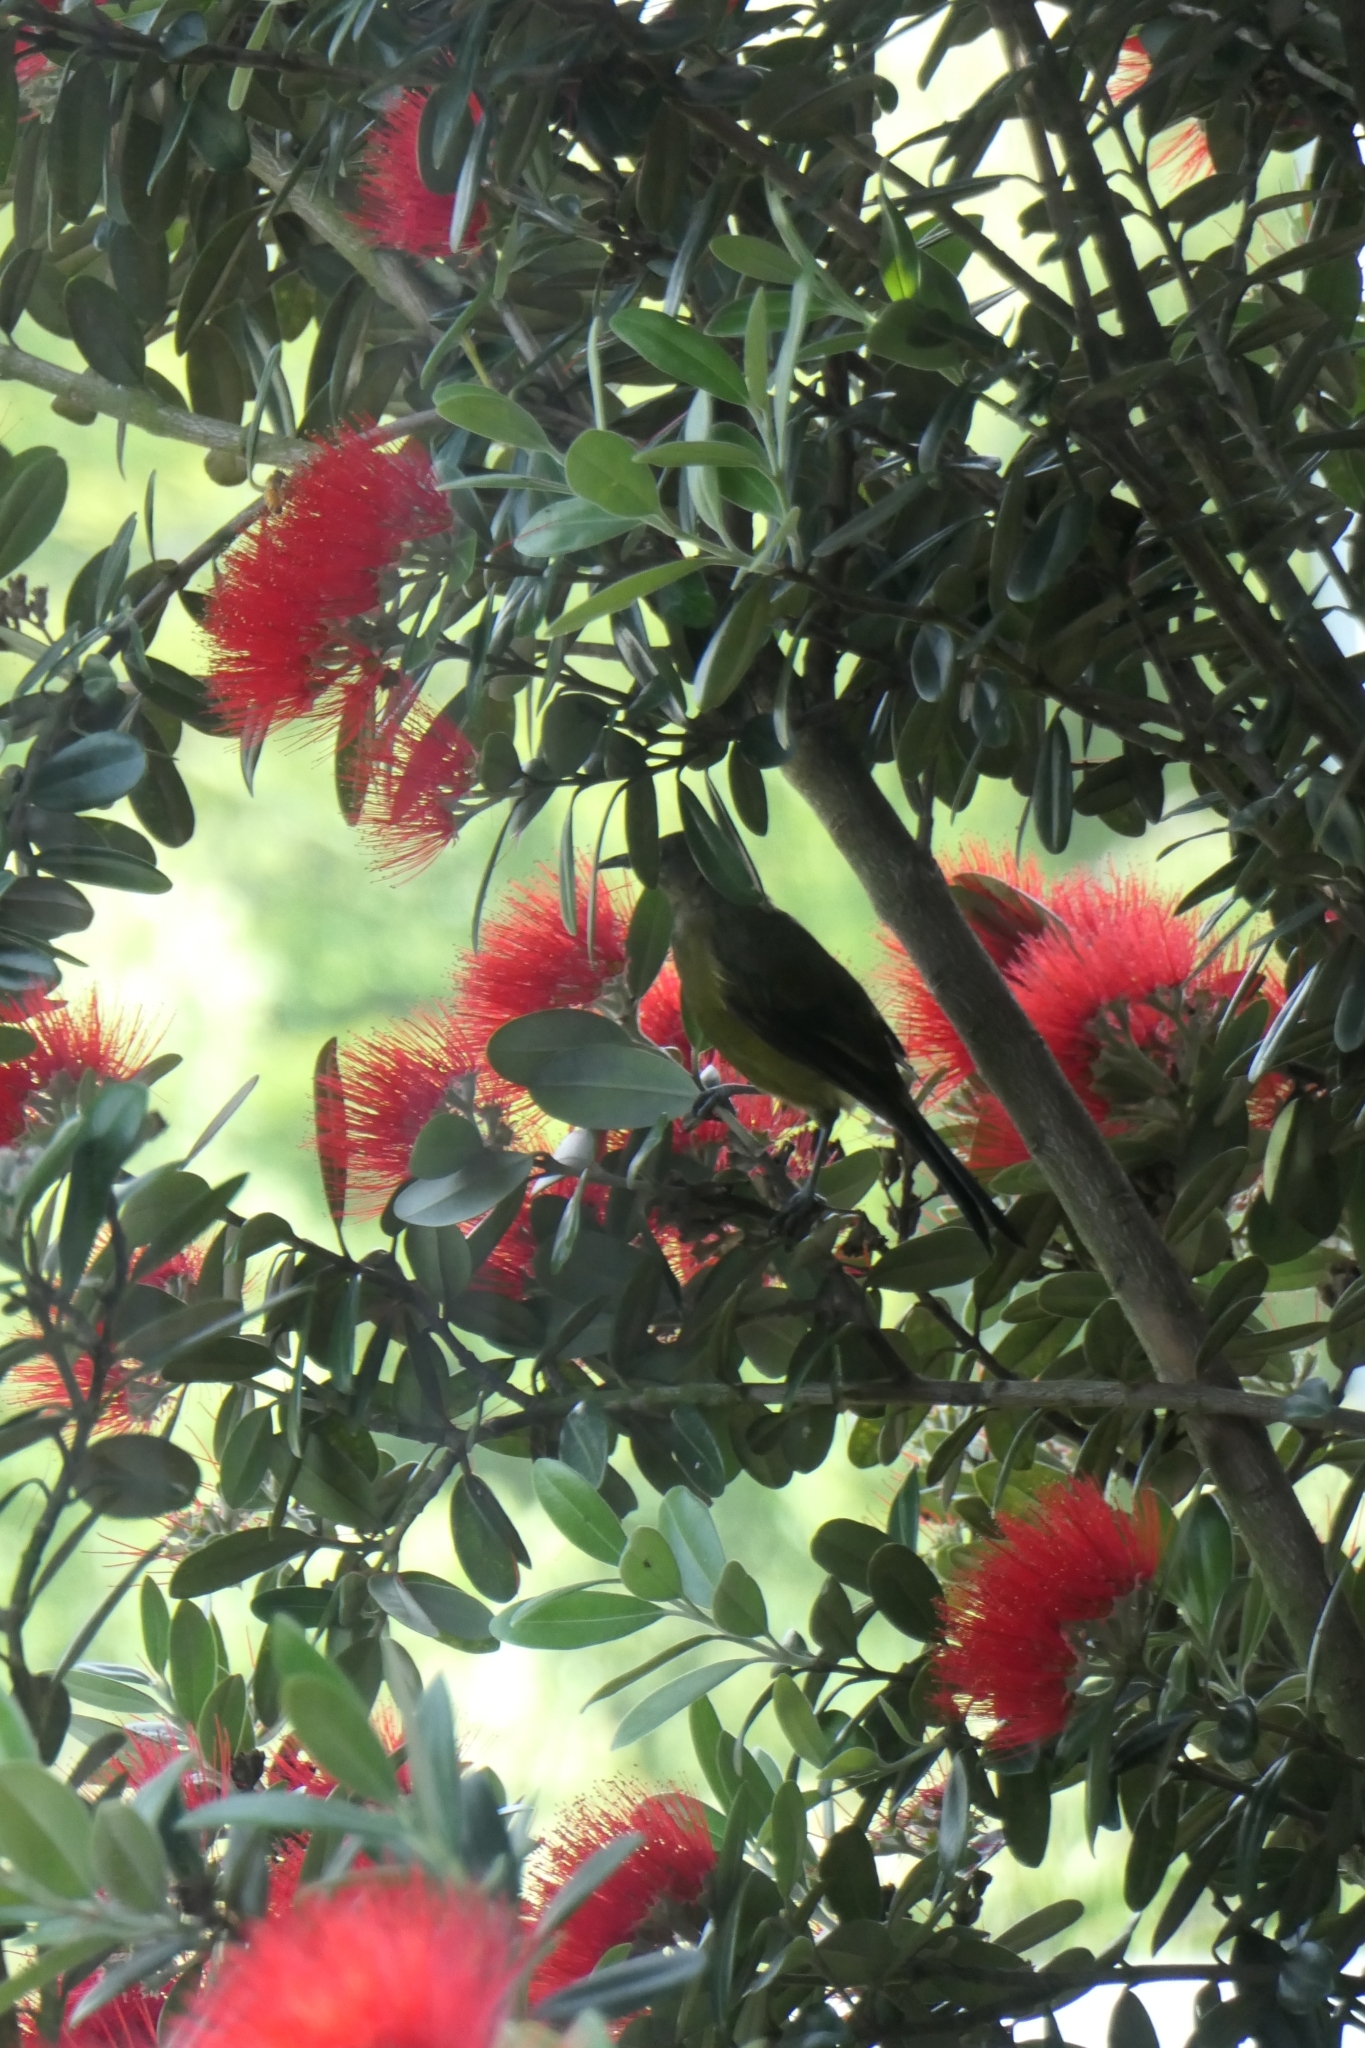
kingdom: Animalia
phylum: Chordata
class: Aves
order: Passeriformes
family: Meliphagidae
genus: Anthornis
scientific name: Anthornis melanura
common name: New zealand bellbird
